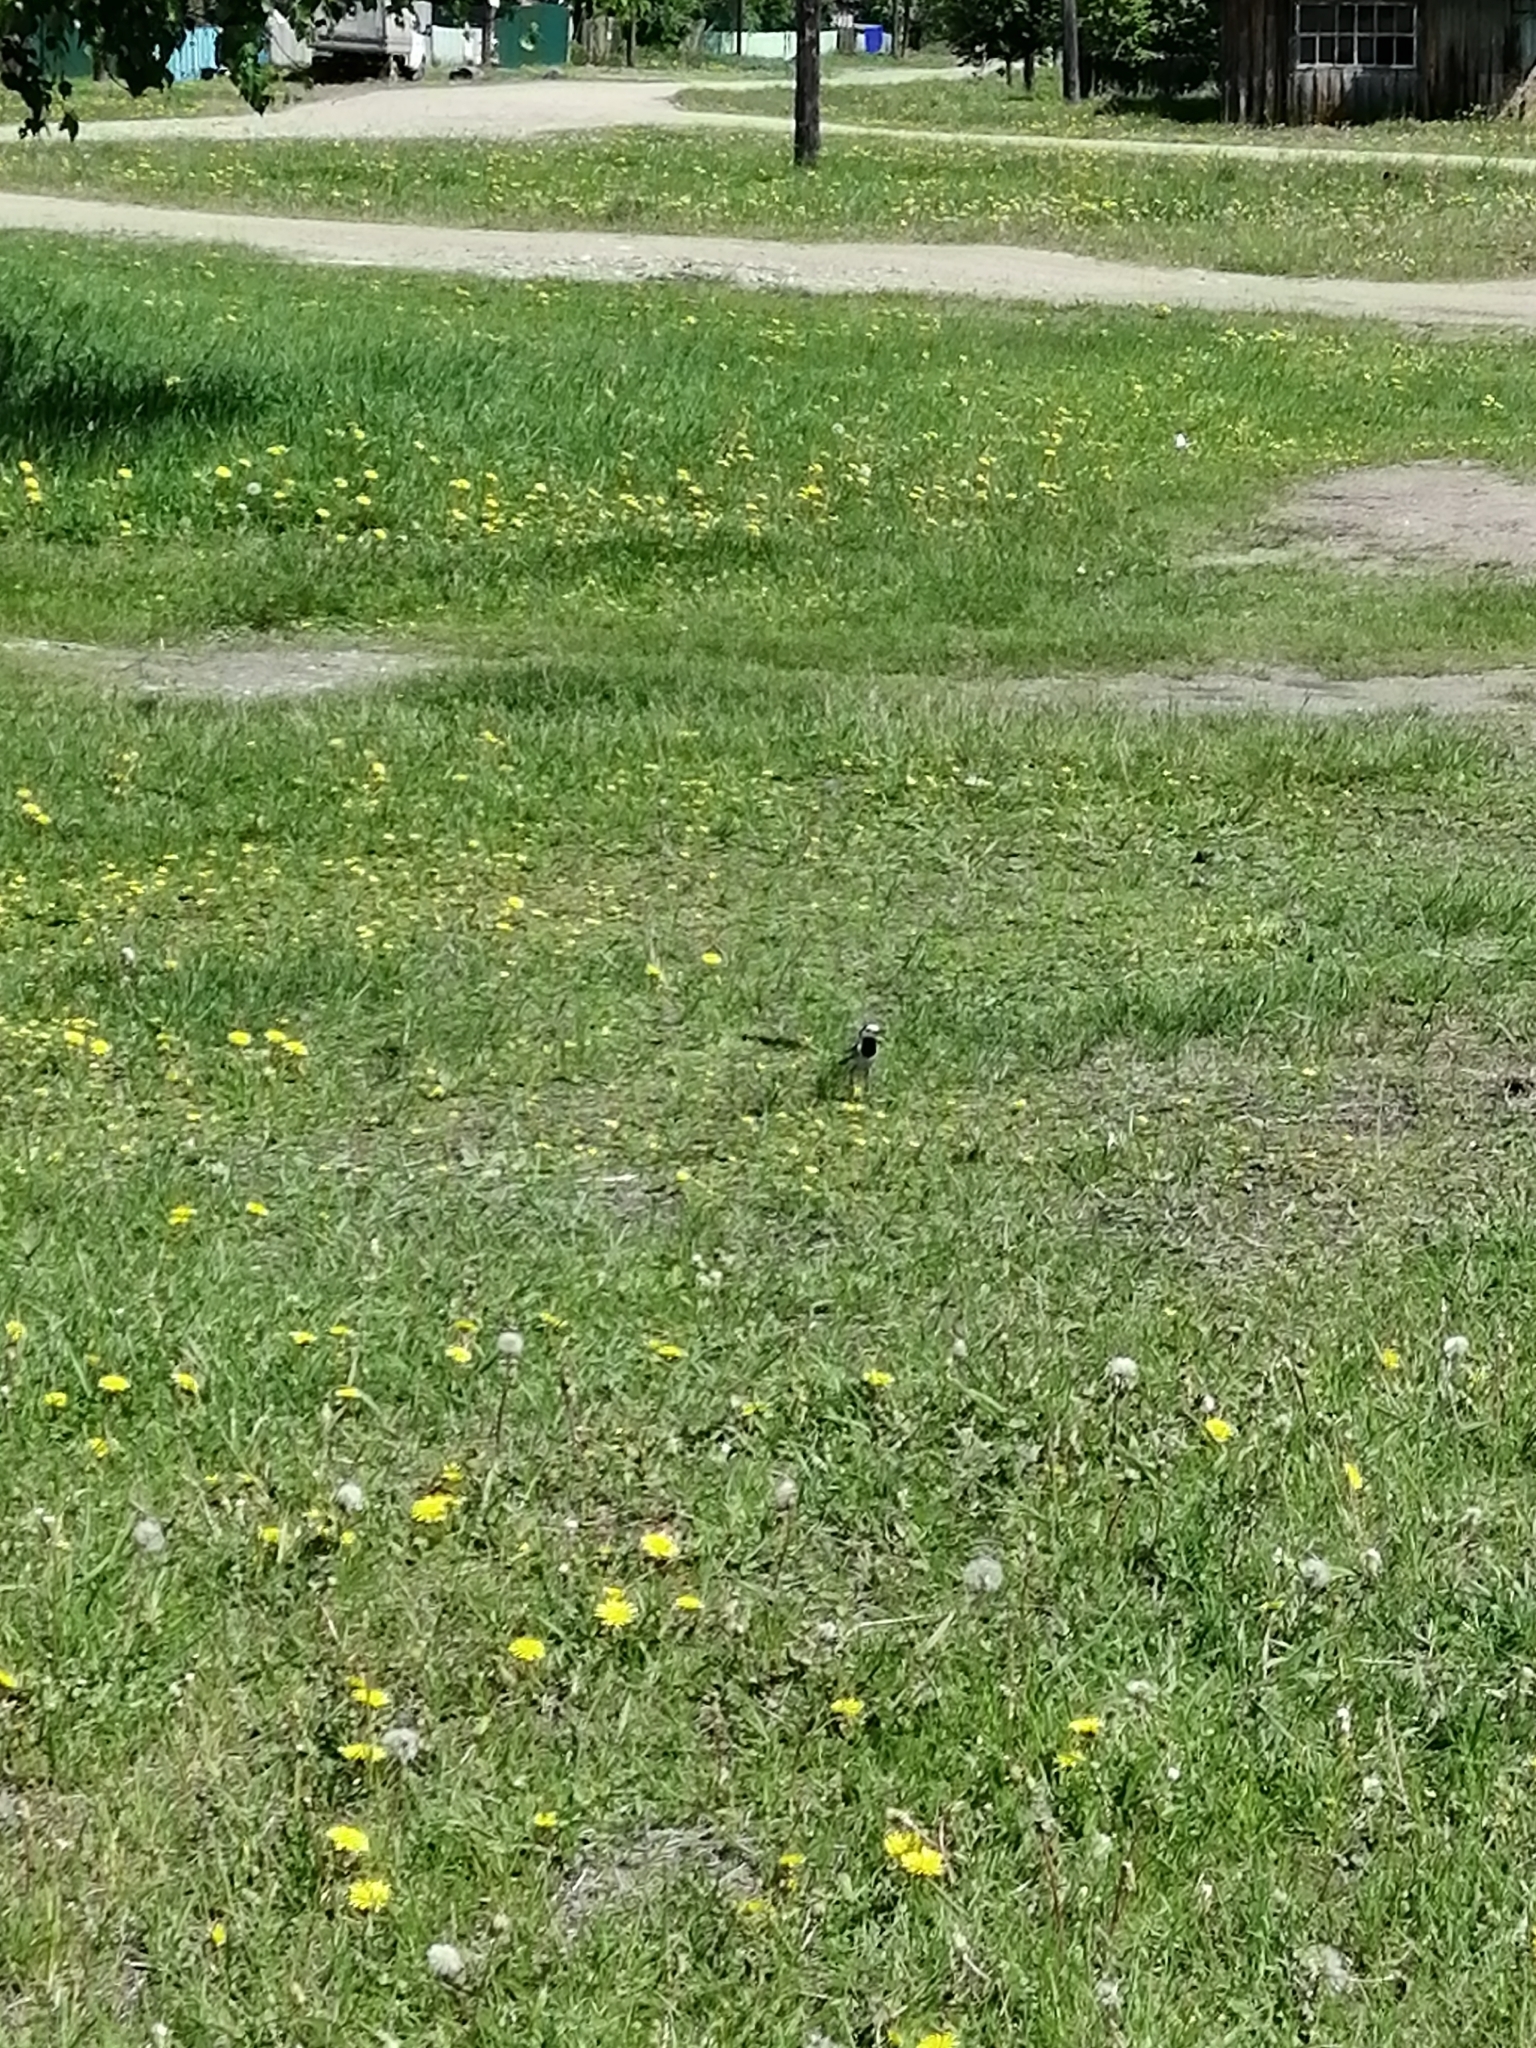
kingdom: Animalia
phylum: Chordata
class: Aves
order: Passeriformes
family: Motacillidae
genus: Motacilla
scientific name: Motacilla alba
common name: White wagtail
